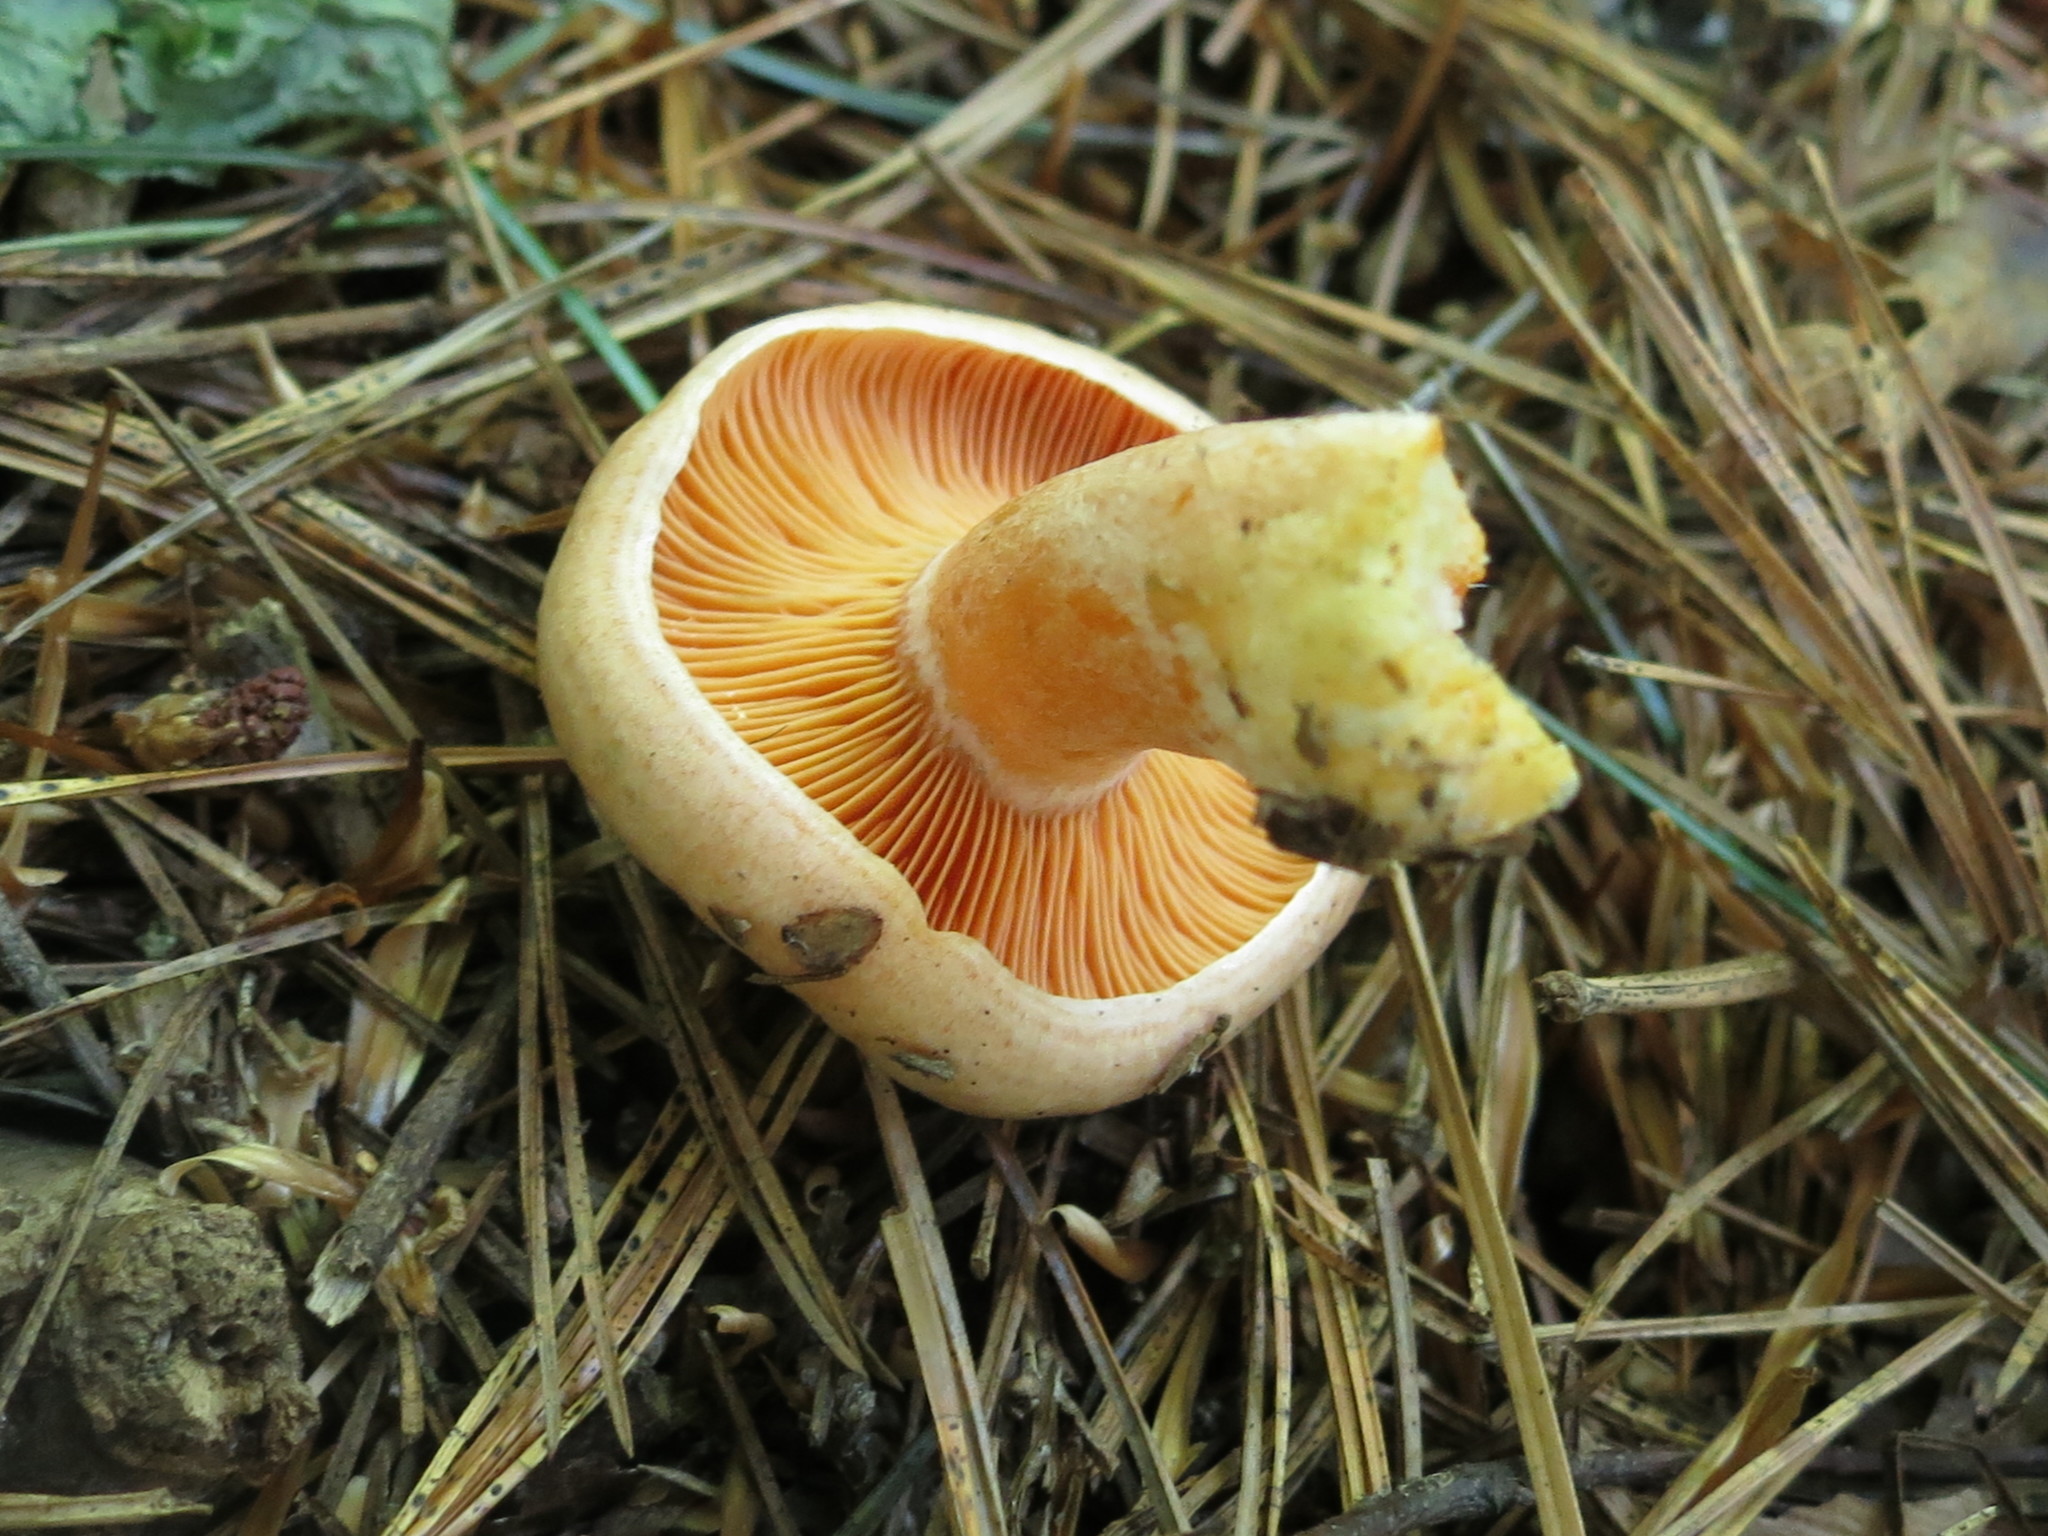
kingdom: Fungi
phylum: Basidiomycota
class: Agaricomycetes
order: Russulales
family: Russulaceae
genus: Lactarius
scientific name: Lactarius deliciosus
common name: Saffron milk-cap
